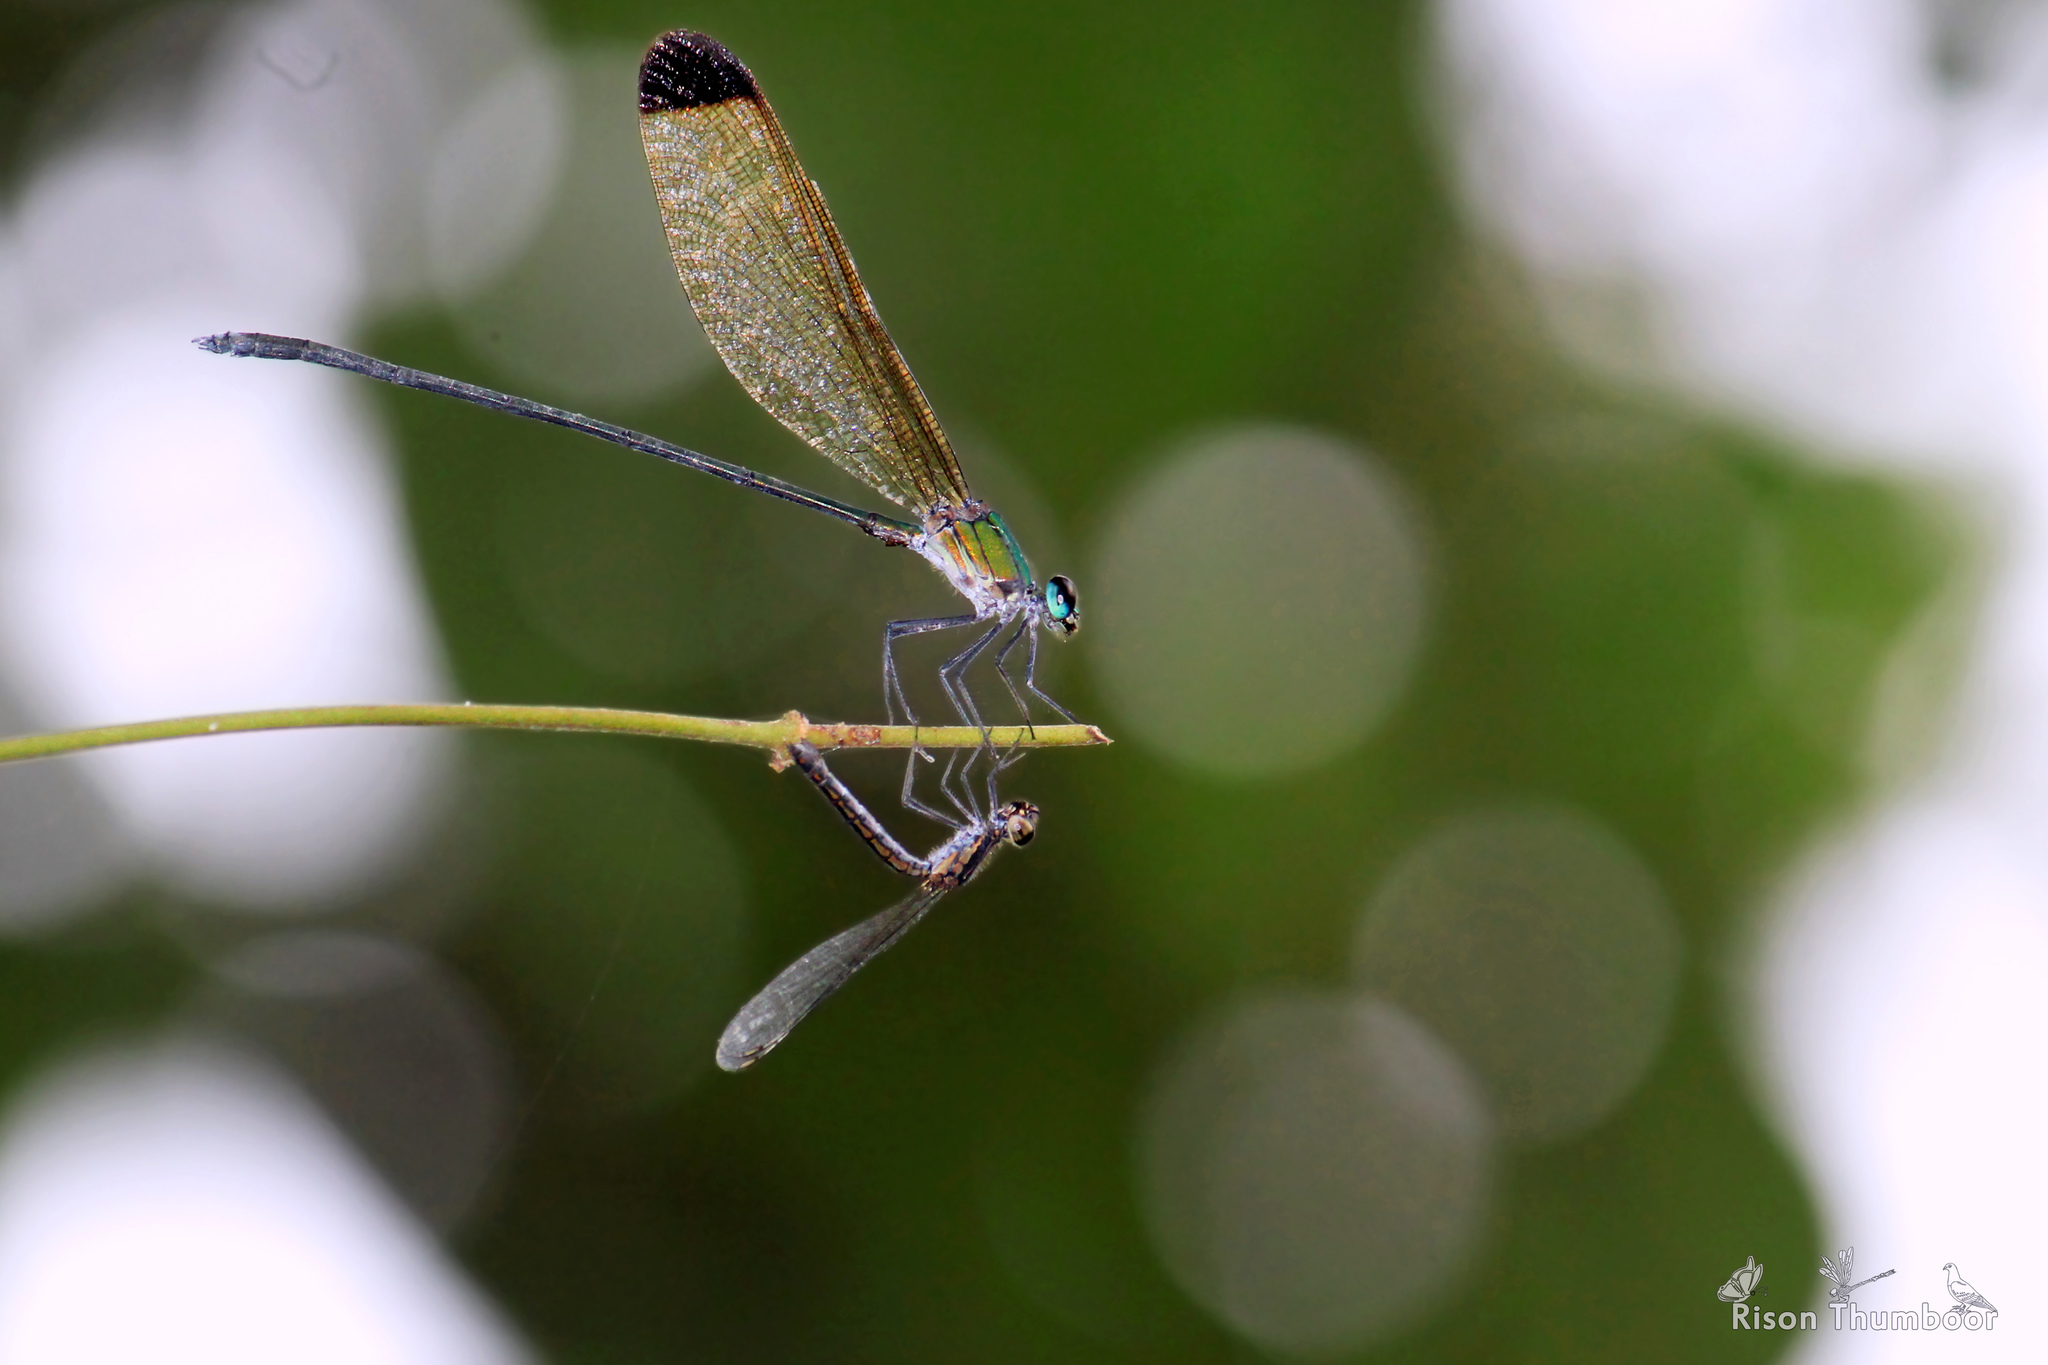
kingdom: Animalia
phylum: Arthropoda
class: Insecta
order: Odonata
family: Calopterygidae
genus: Vestalis
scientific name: Vestalis apicalis
